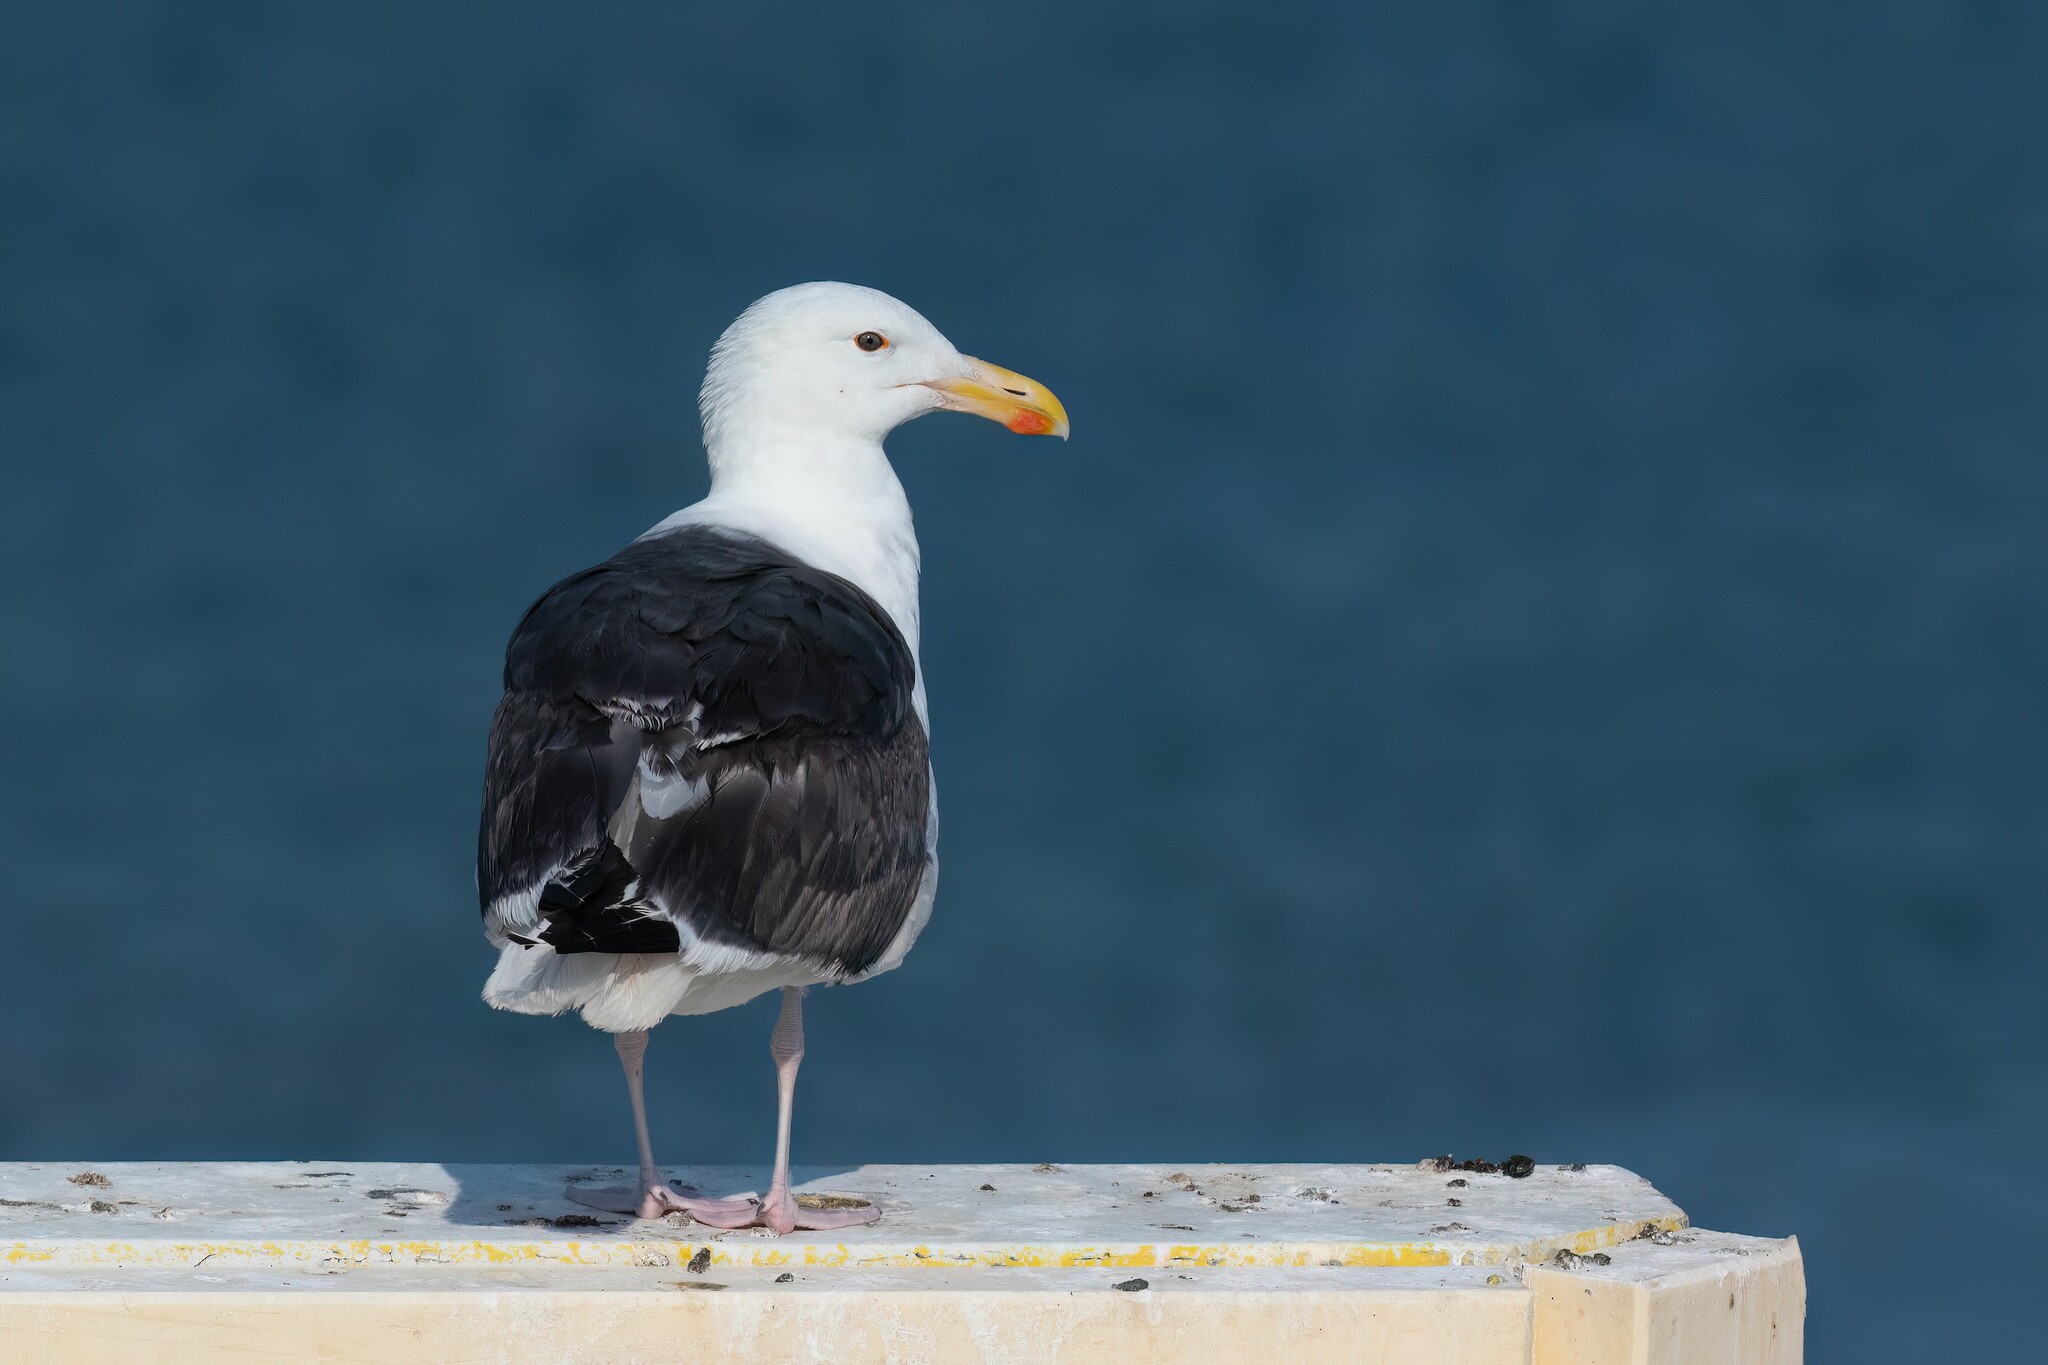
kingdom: Animalia
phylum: Chordata
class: Aves
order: Charadriiformes
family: Laridae
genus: Larus
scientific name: Larus marinus
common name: Great black-backed gull
